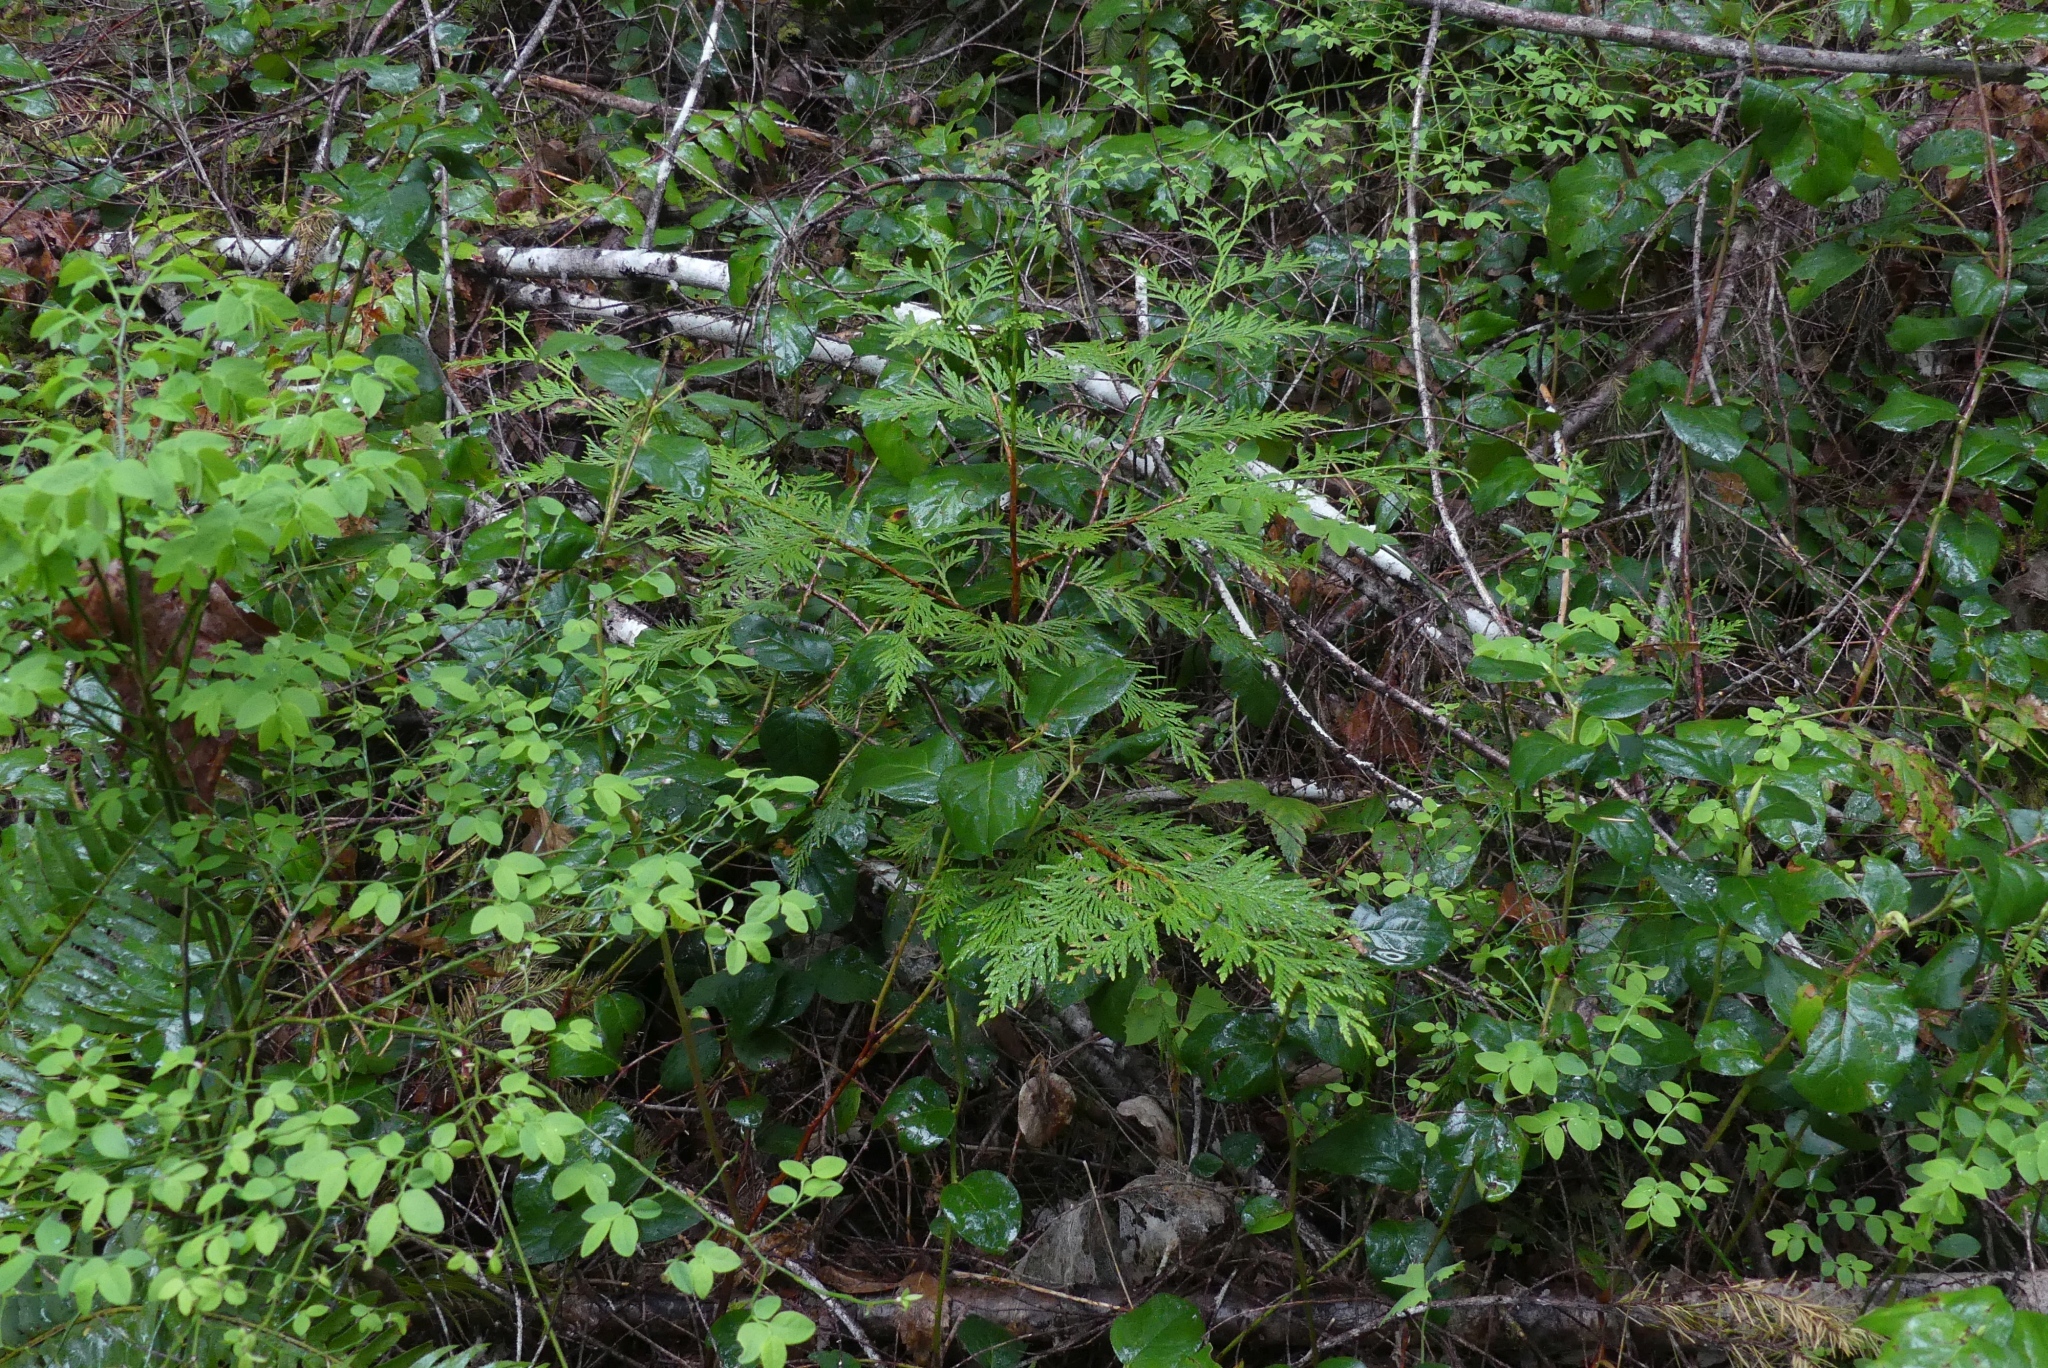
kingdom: Plantae
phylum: Tracheophyta
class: Pinopsida
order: Pinales
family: Cupressaceae
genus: Thuja
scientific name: Thuja plicata
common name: Western red-cedar
